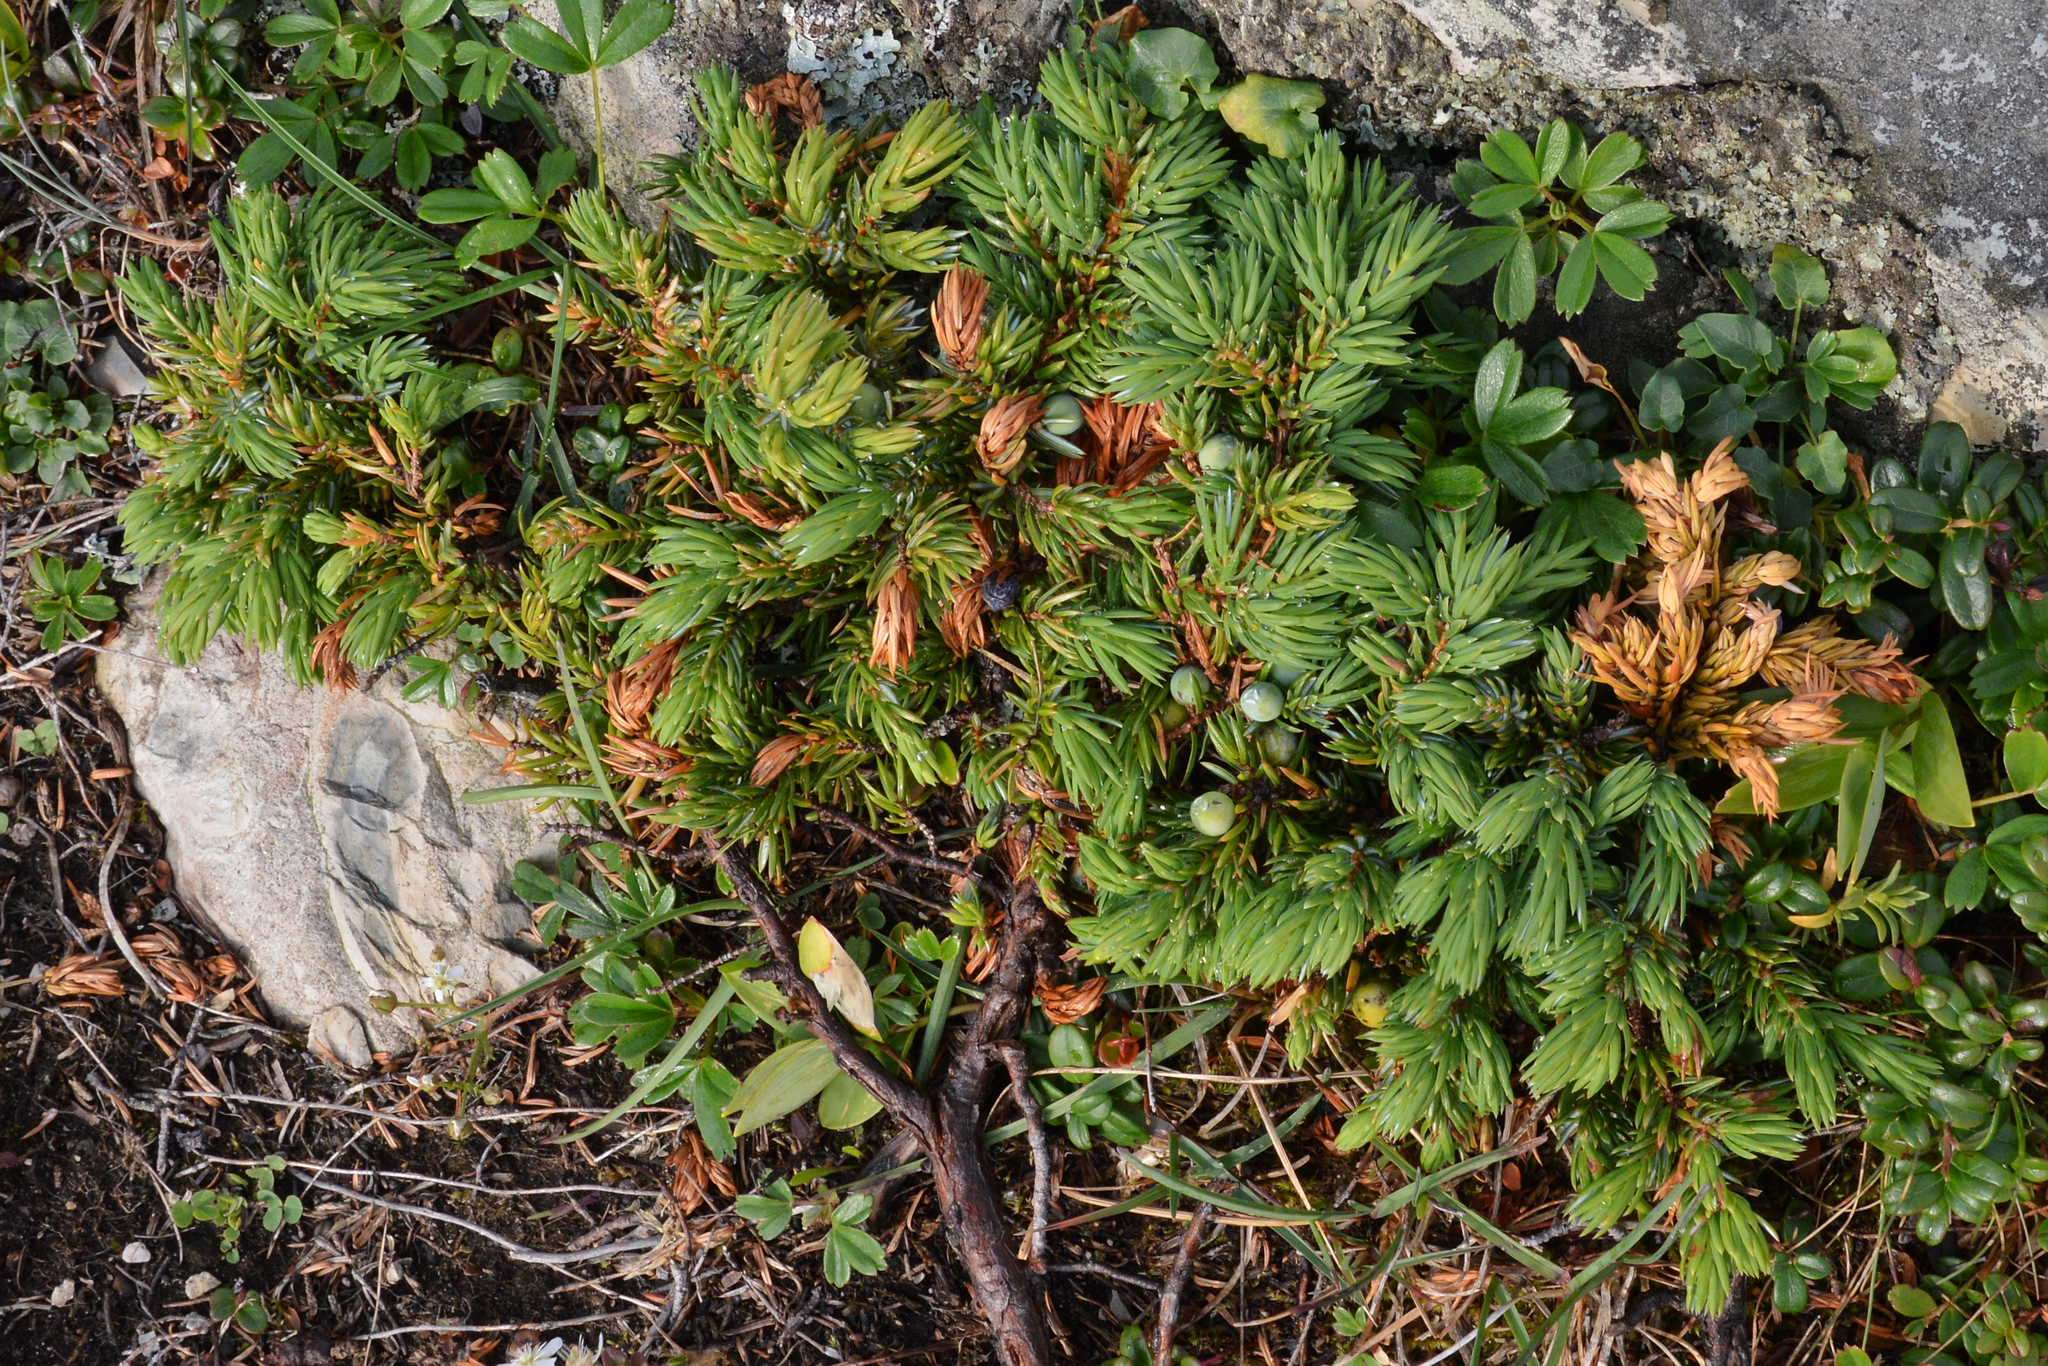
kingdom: Plantae
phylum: Tracheophyta
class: Pinopsida
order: Pinales
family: Cupressaceae
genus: Juniperus
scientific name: Juniperus communis
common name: Common juniper
